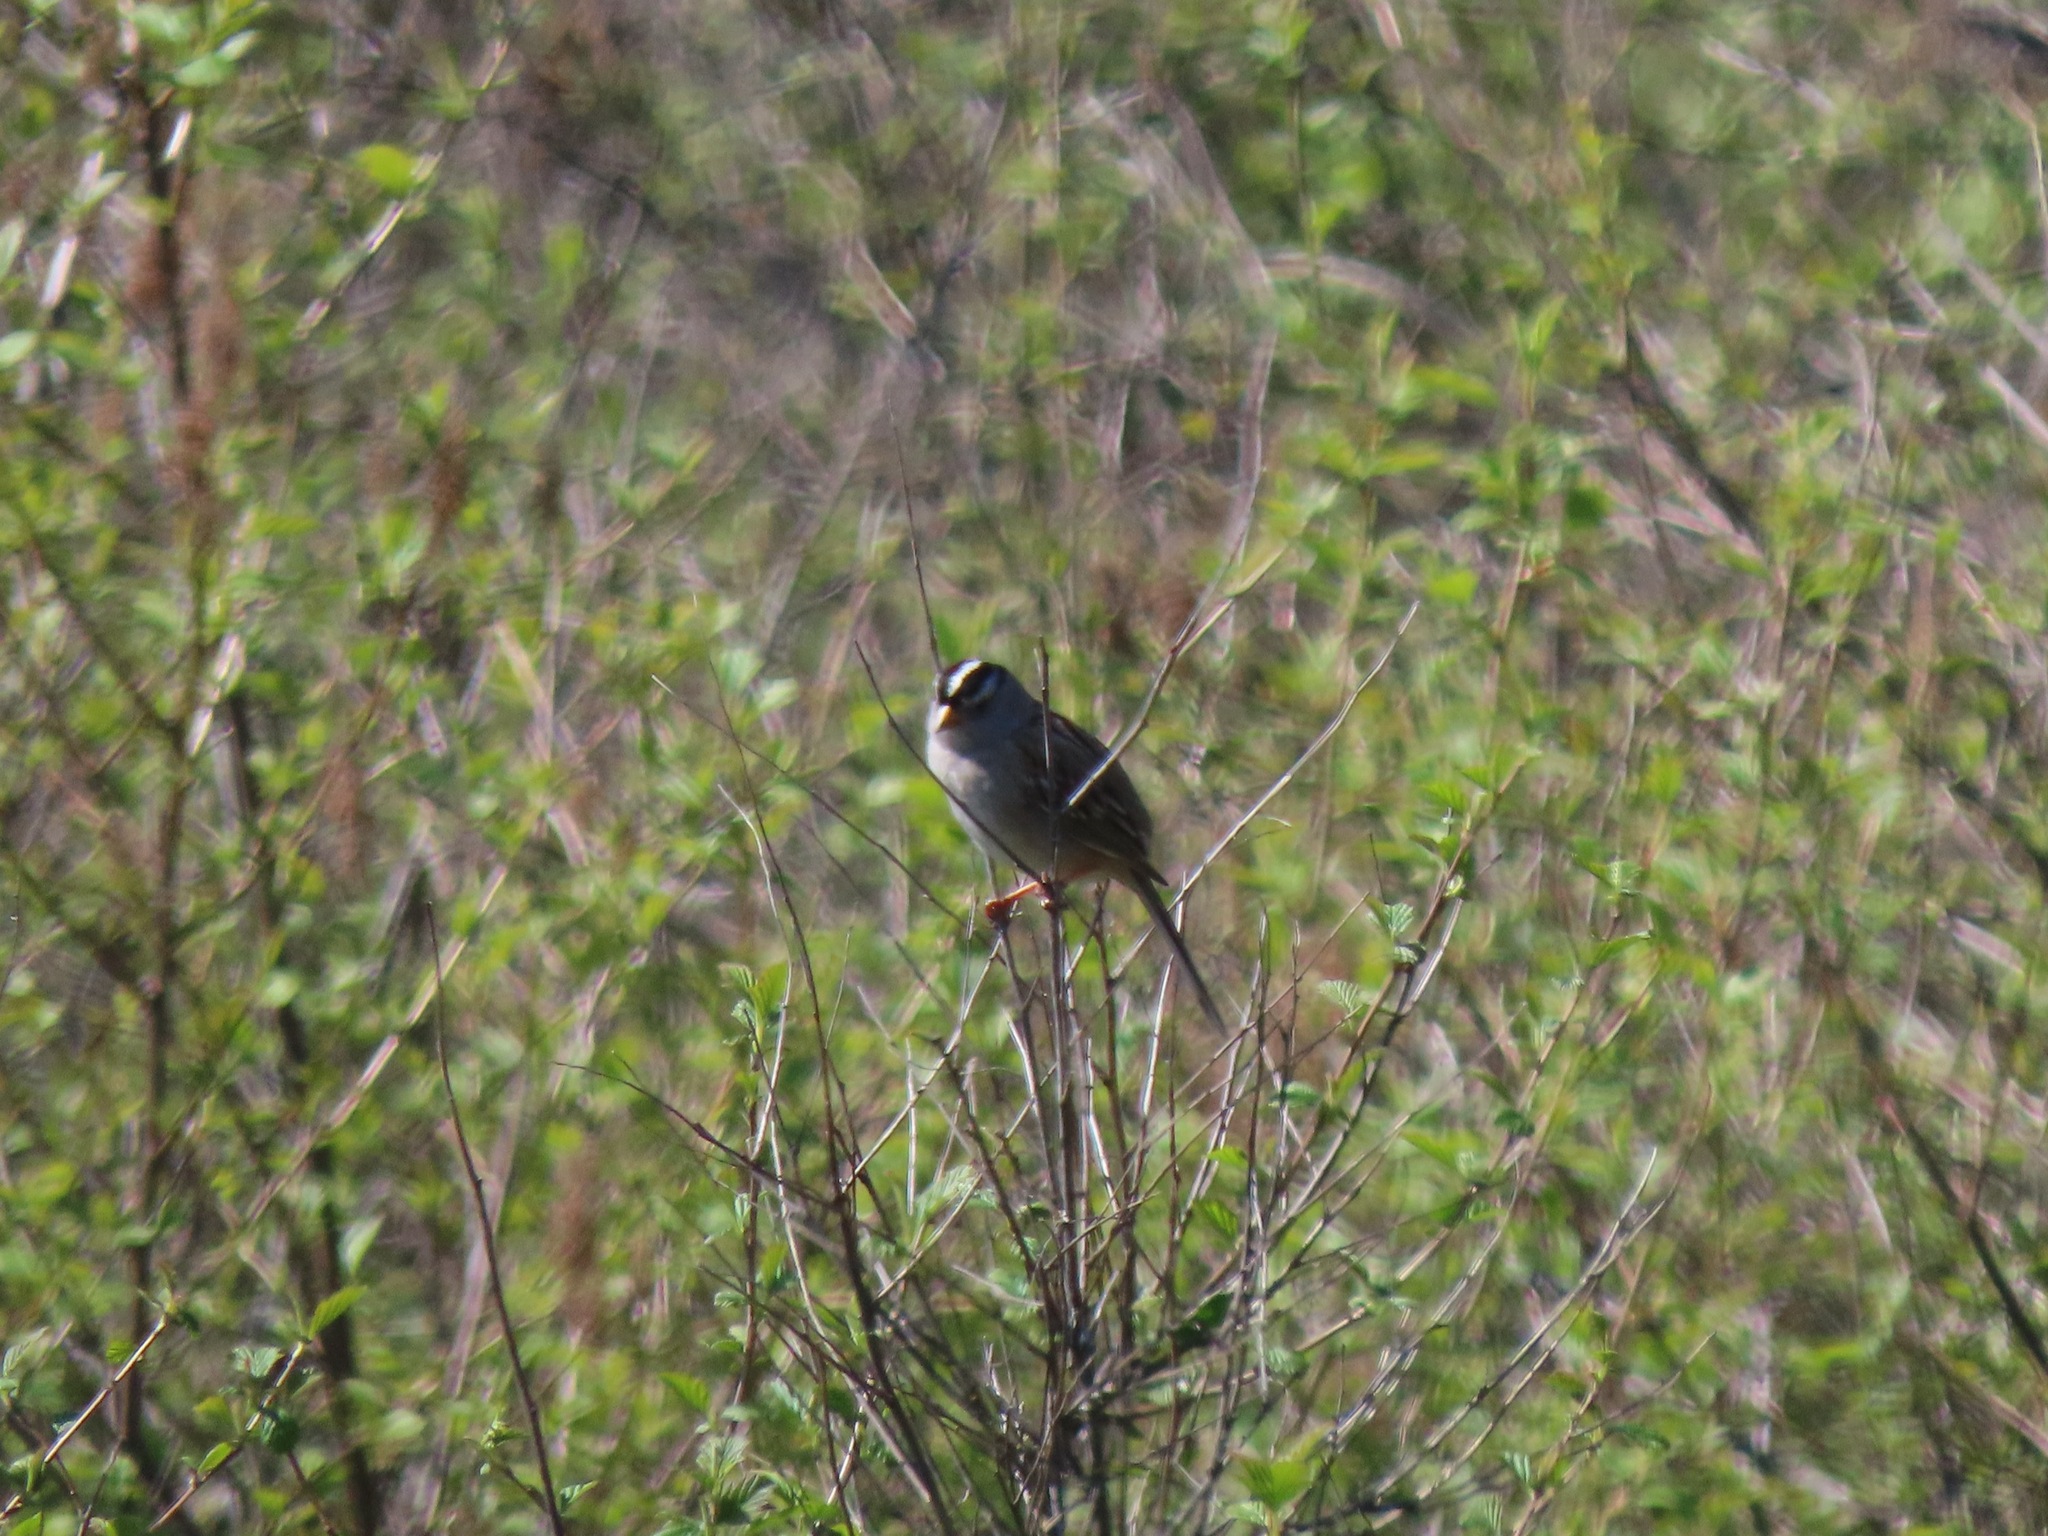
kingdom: Animalia
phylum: Chordata
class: Aves
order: Passeriformes
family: Passerellidae
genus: Zonotrichia
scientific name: Zonotrichia leucophrys
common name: White-crowned sparrow
